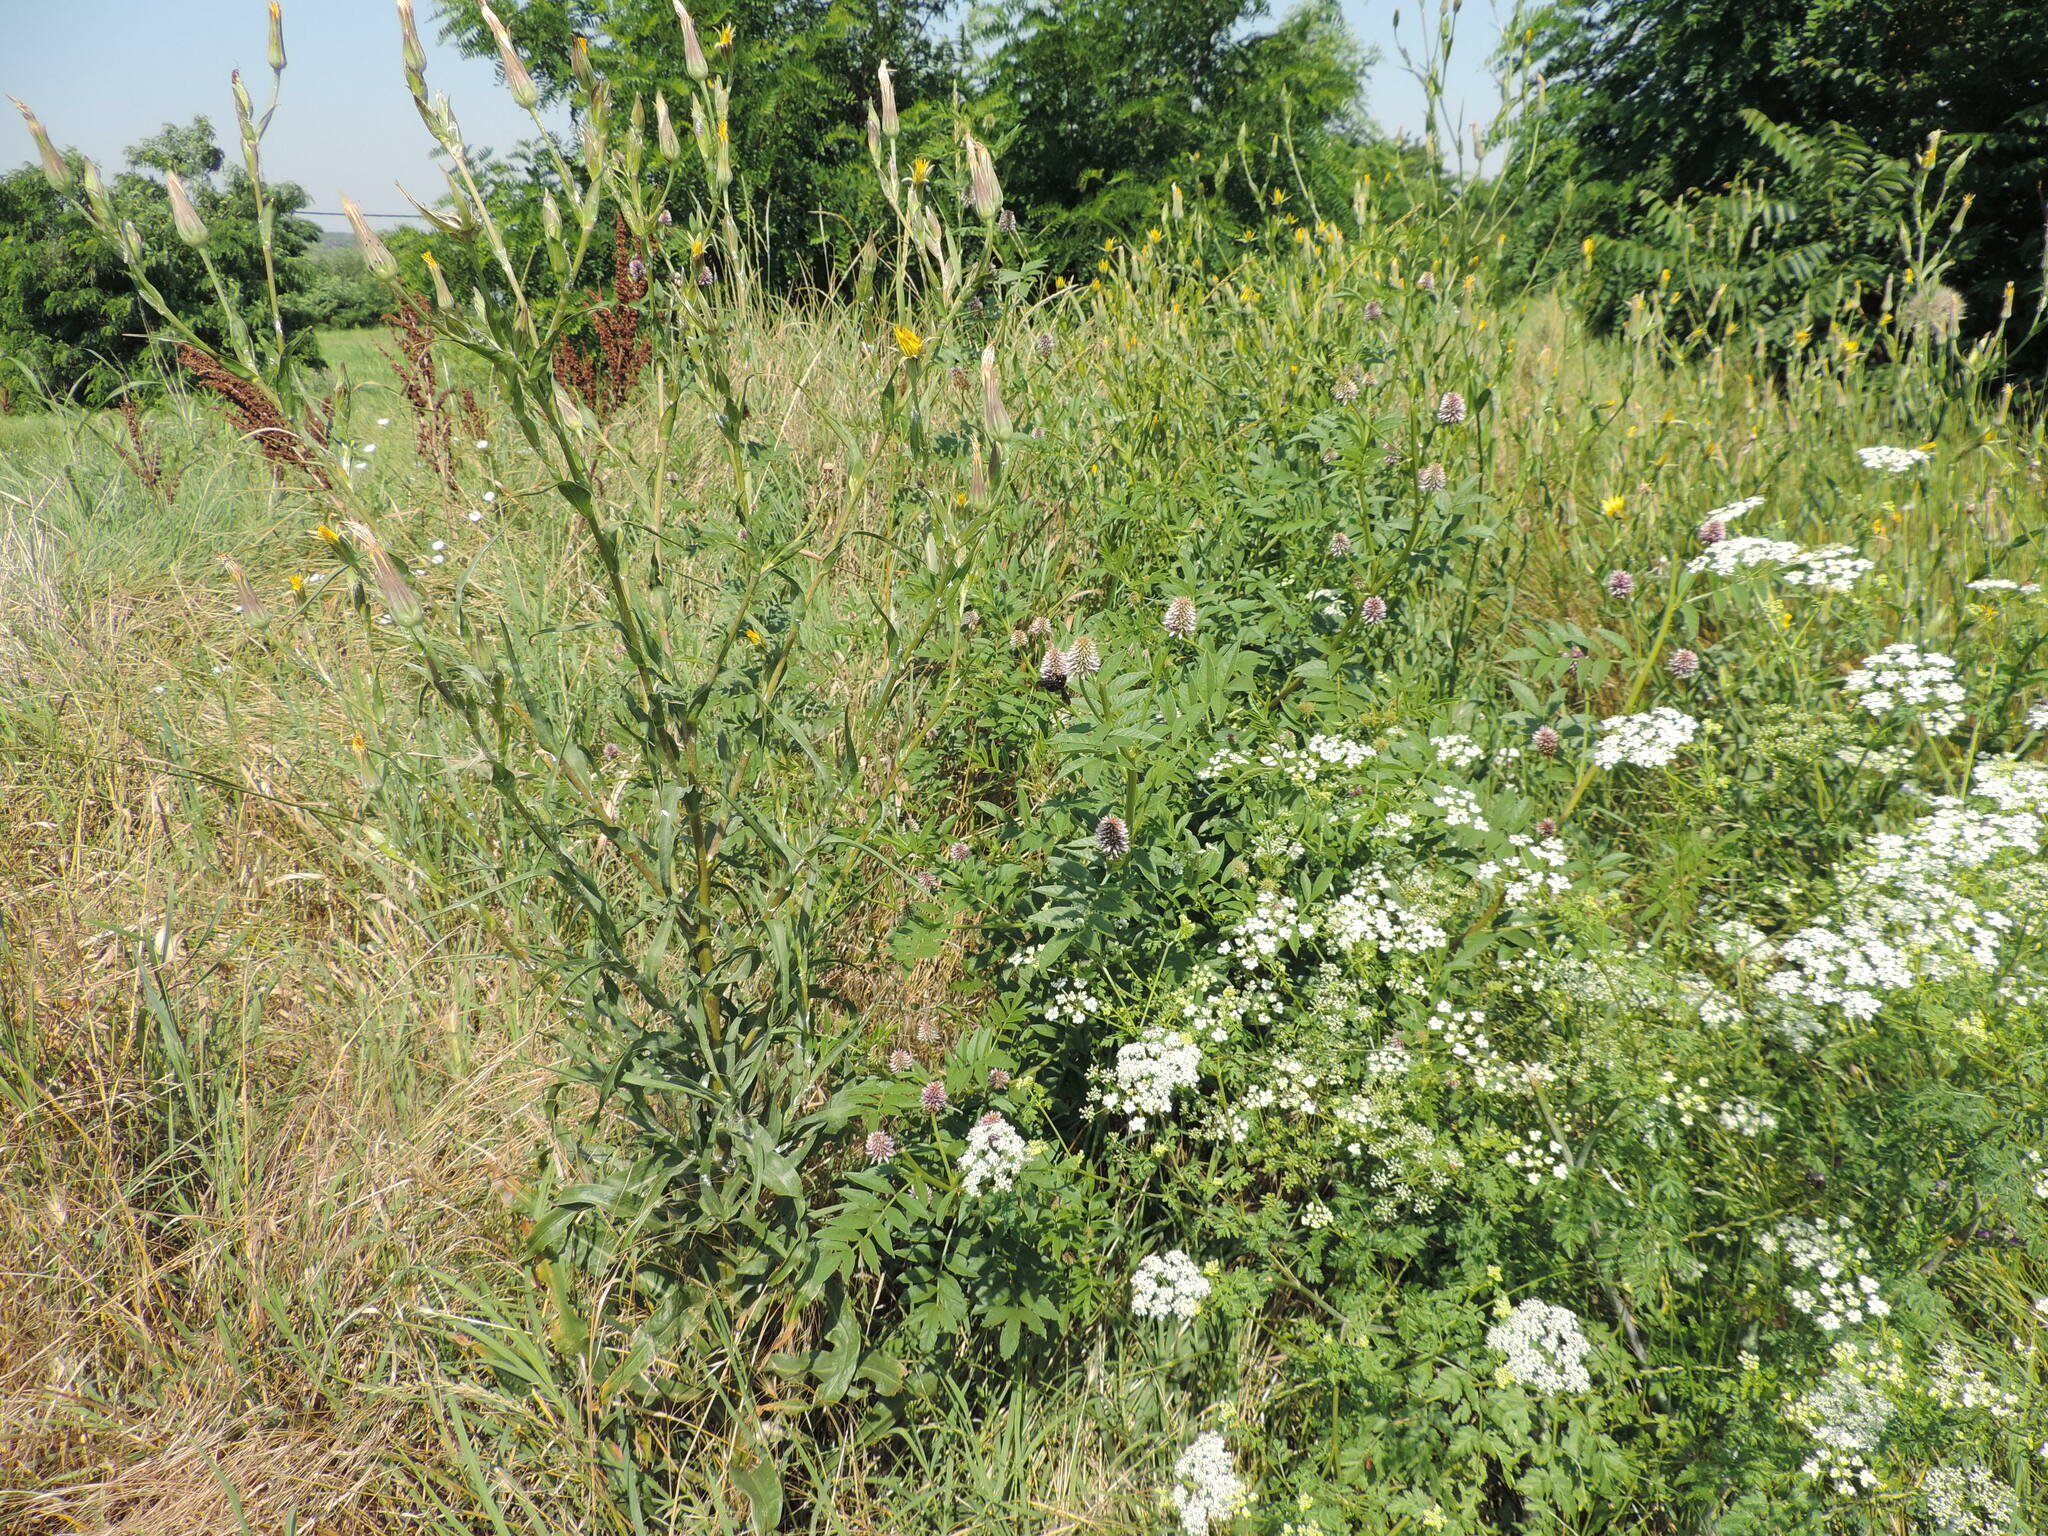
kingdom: Plantae
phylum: Tracheophyta
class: Magnoliopsida
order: Fabales
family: Fabaceae
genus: Glycyrrhiza
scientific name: Glycyrrhiza echinata
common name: German liquorice
